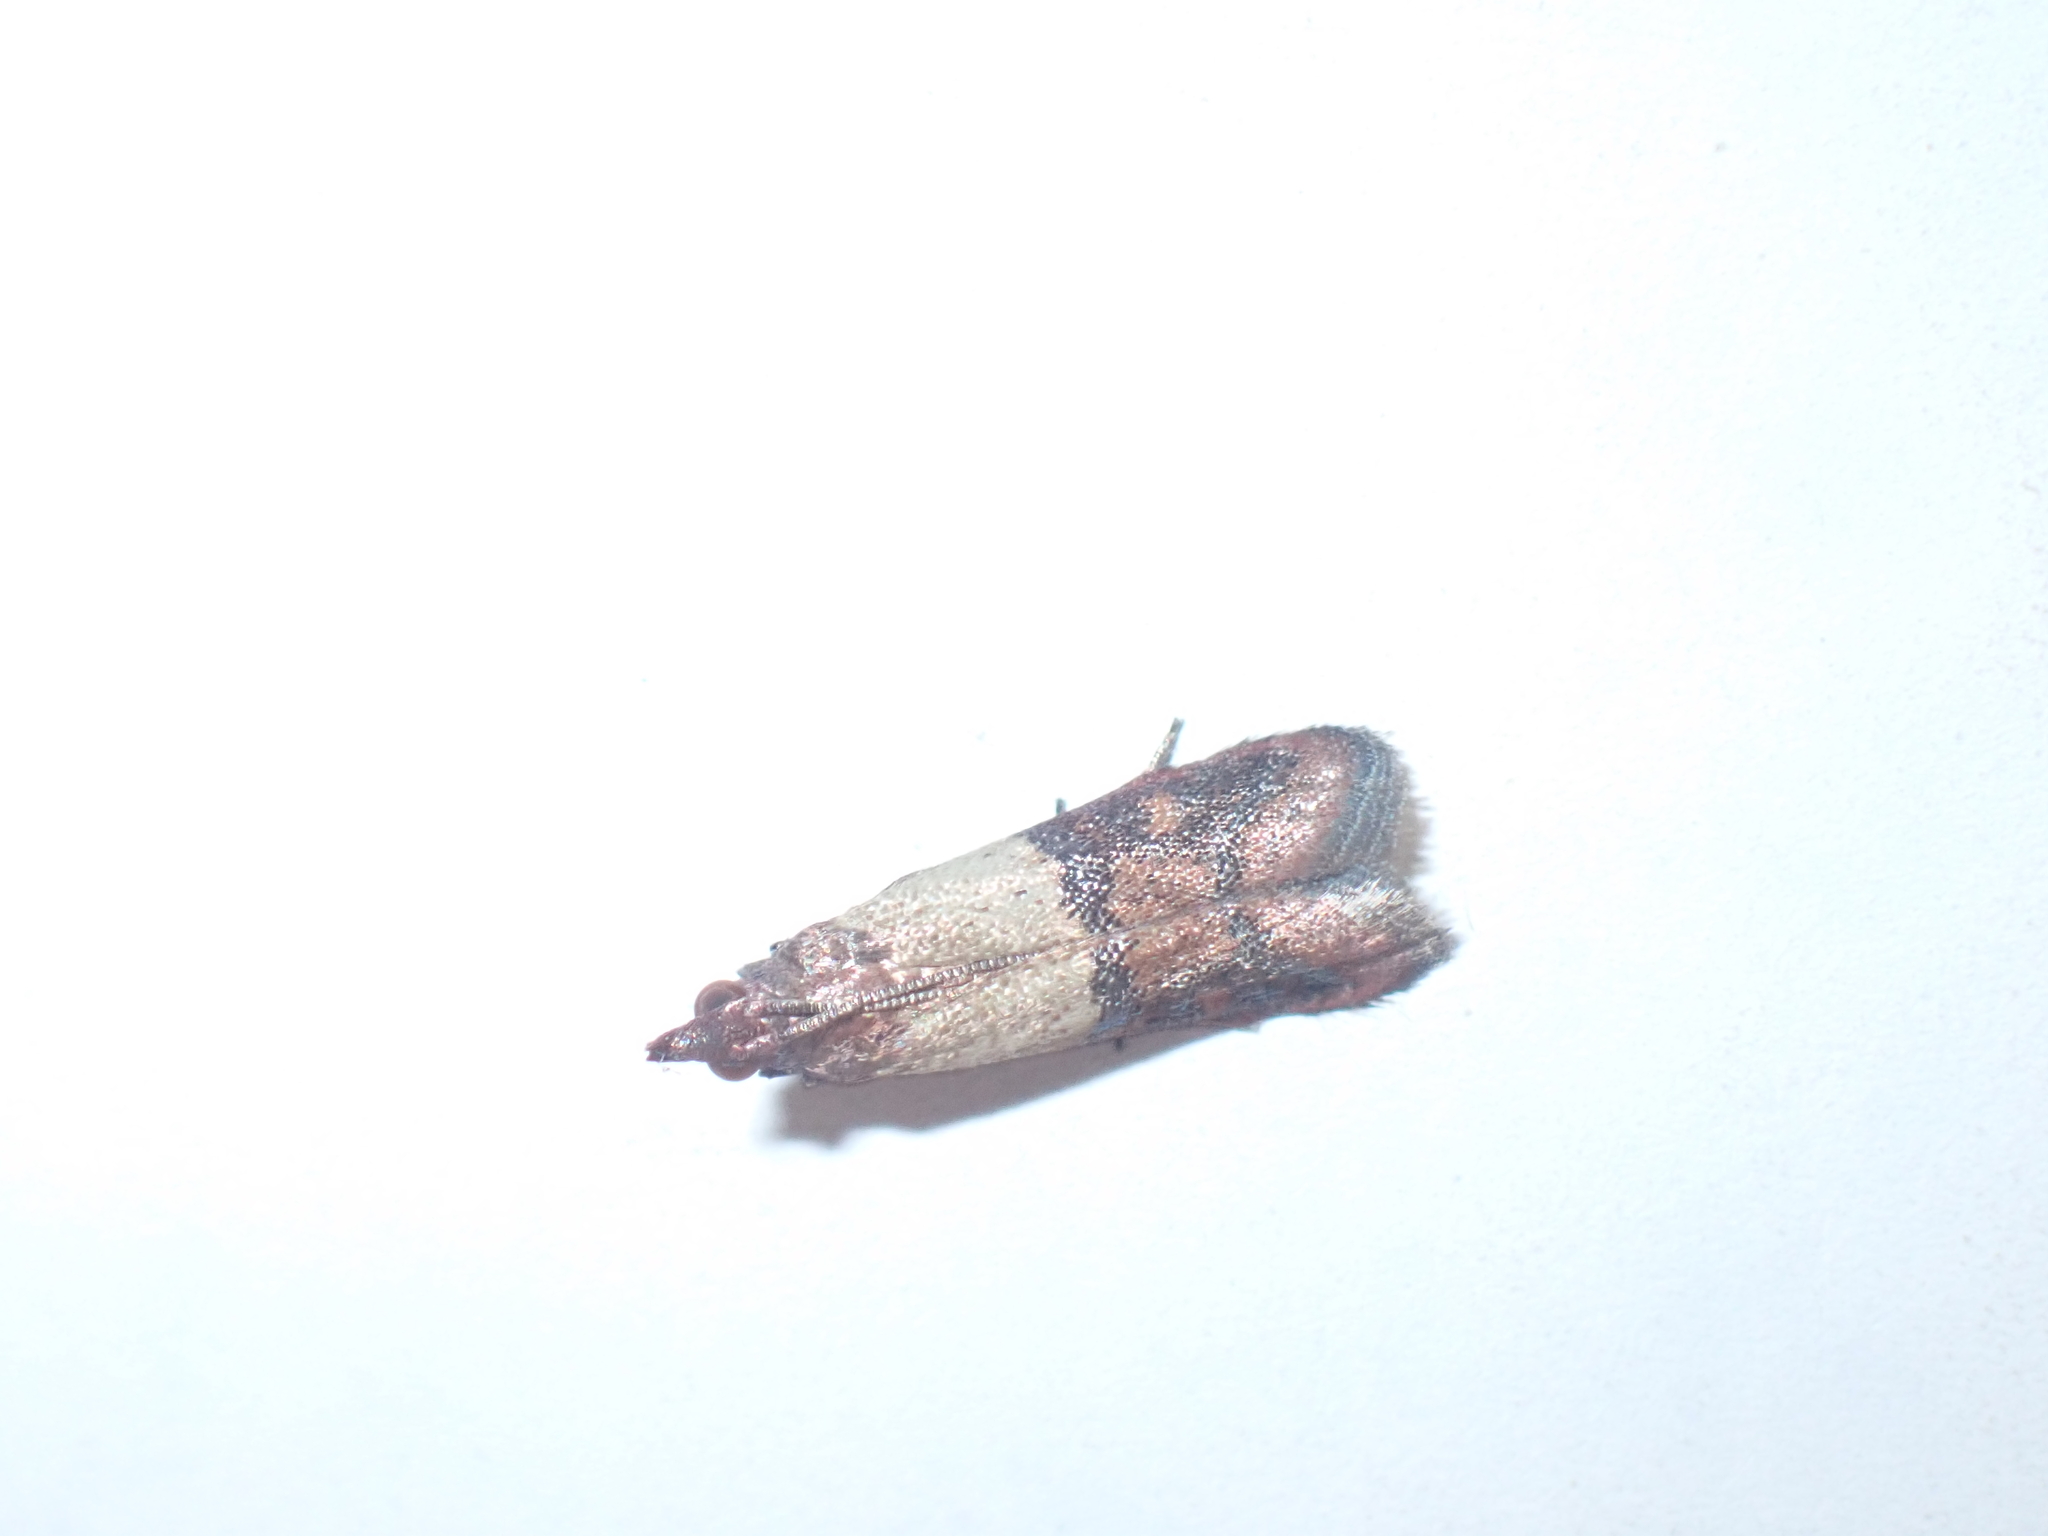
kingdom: Animalia
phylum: Arthropoda
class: Insecta
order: Lepidoptera
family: Pyralidae
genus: Plodia
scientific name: Plodia interpunctella
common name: Indian meal moth
